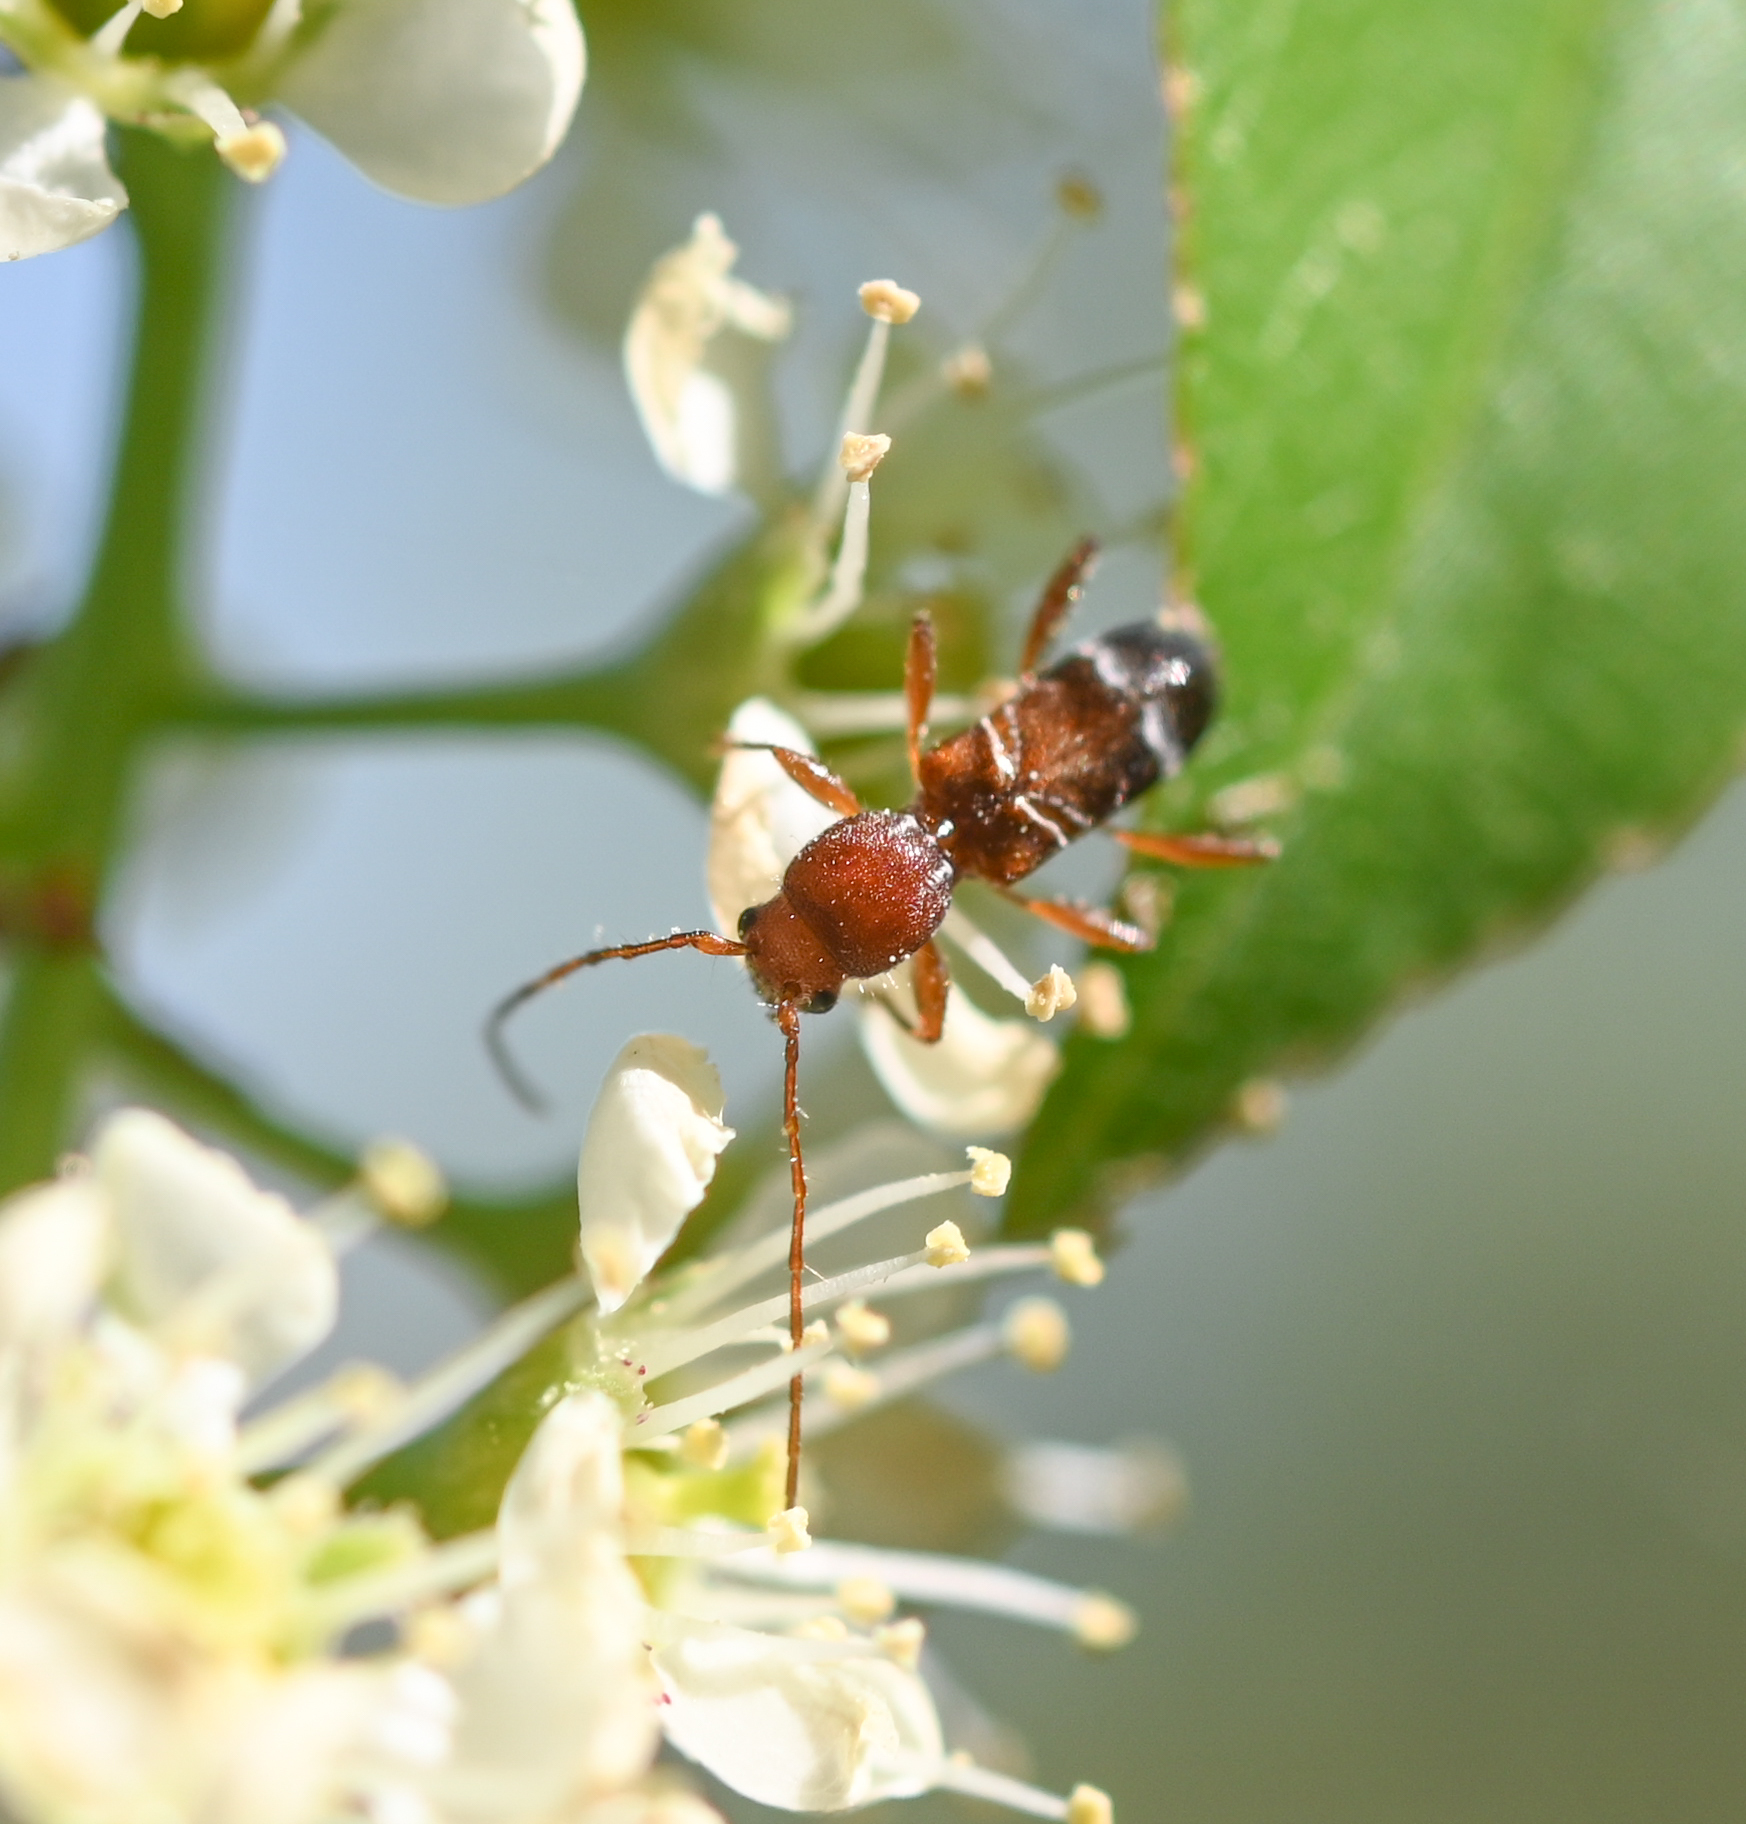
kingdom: Animalia
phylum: Arthropoda
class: Insecta
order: Coleoptera
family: Cerambycidae
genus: Tilloclytus
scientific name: Tilloclytus geminatus
